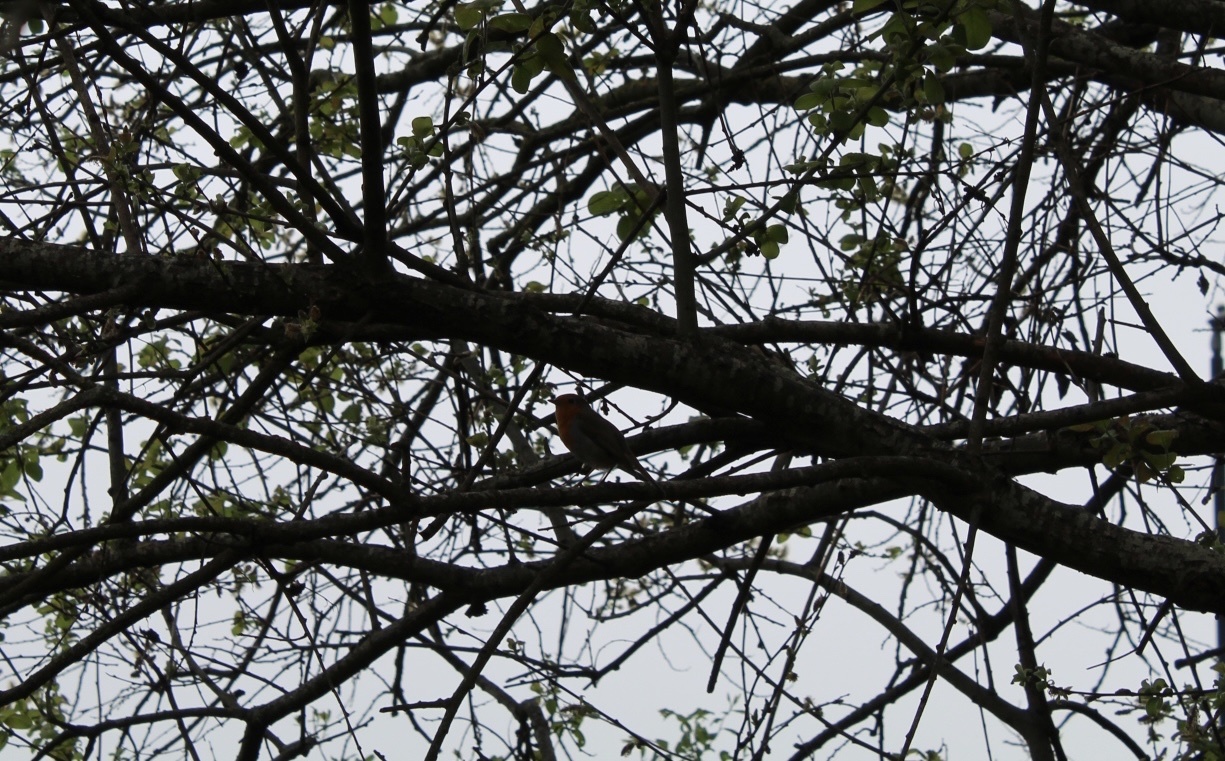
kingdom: Animalia
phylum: Chordata
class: Aves
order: Passeriformes
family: Muscicapidae
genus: Erithacus
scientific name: Erithacus rubecula
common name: European robin
